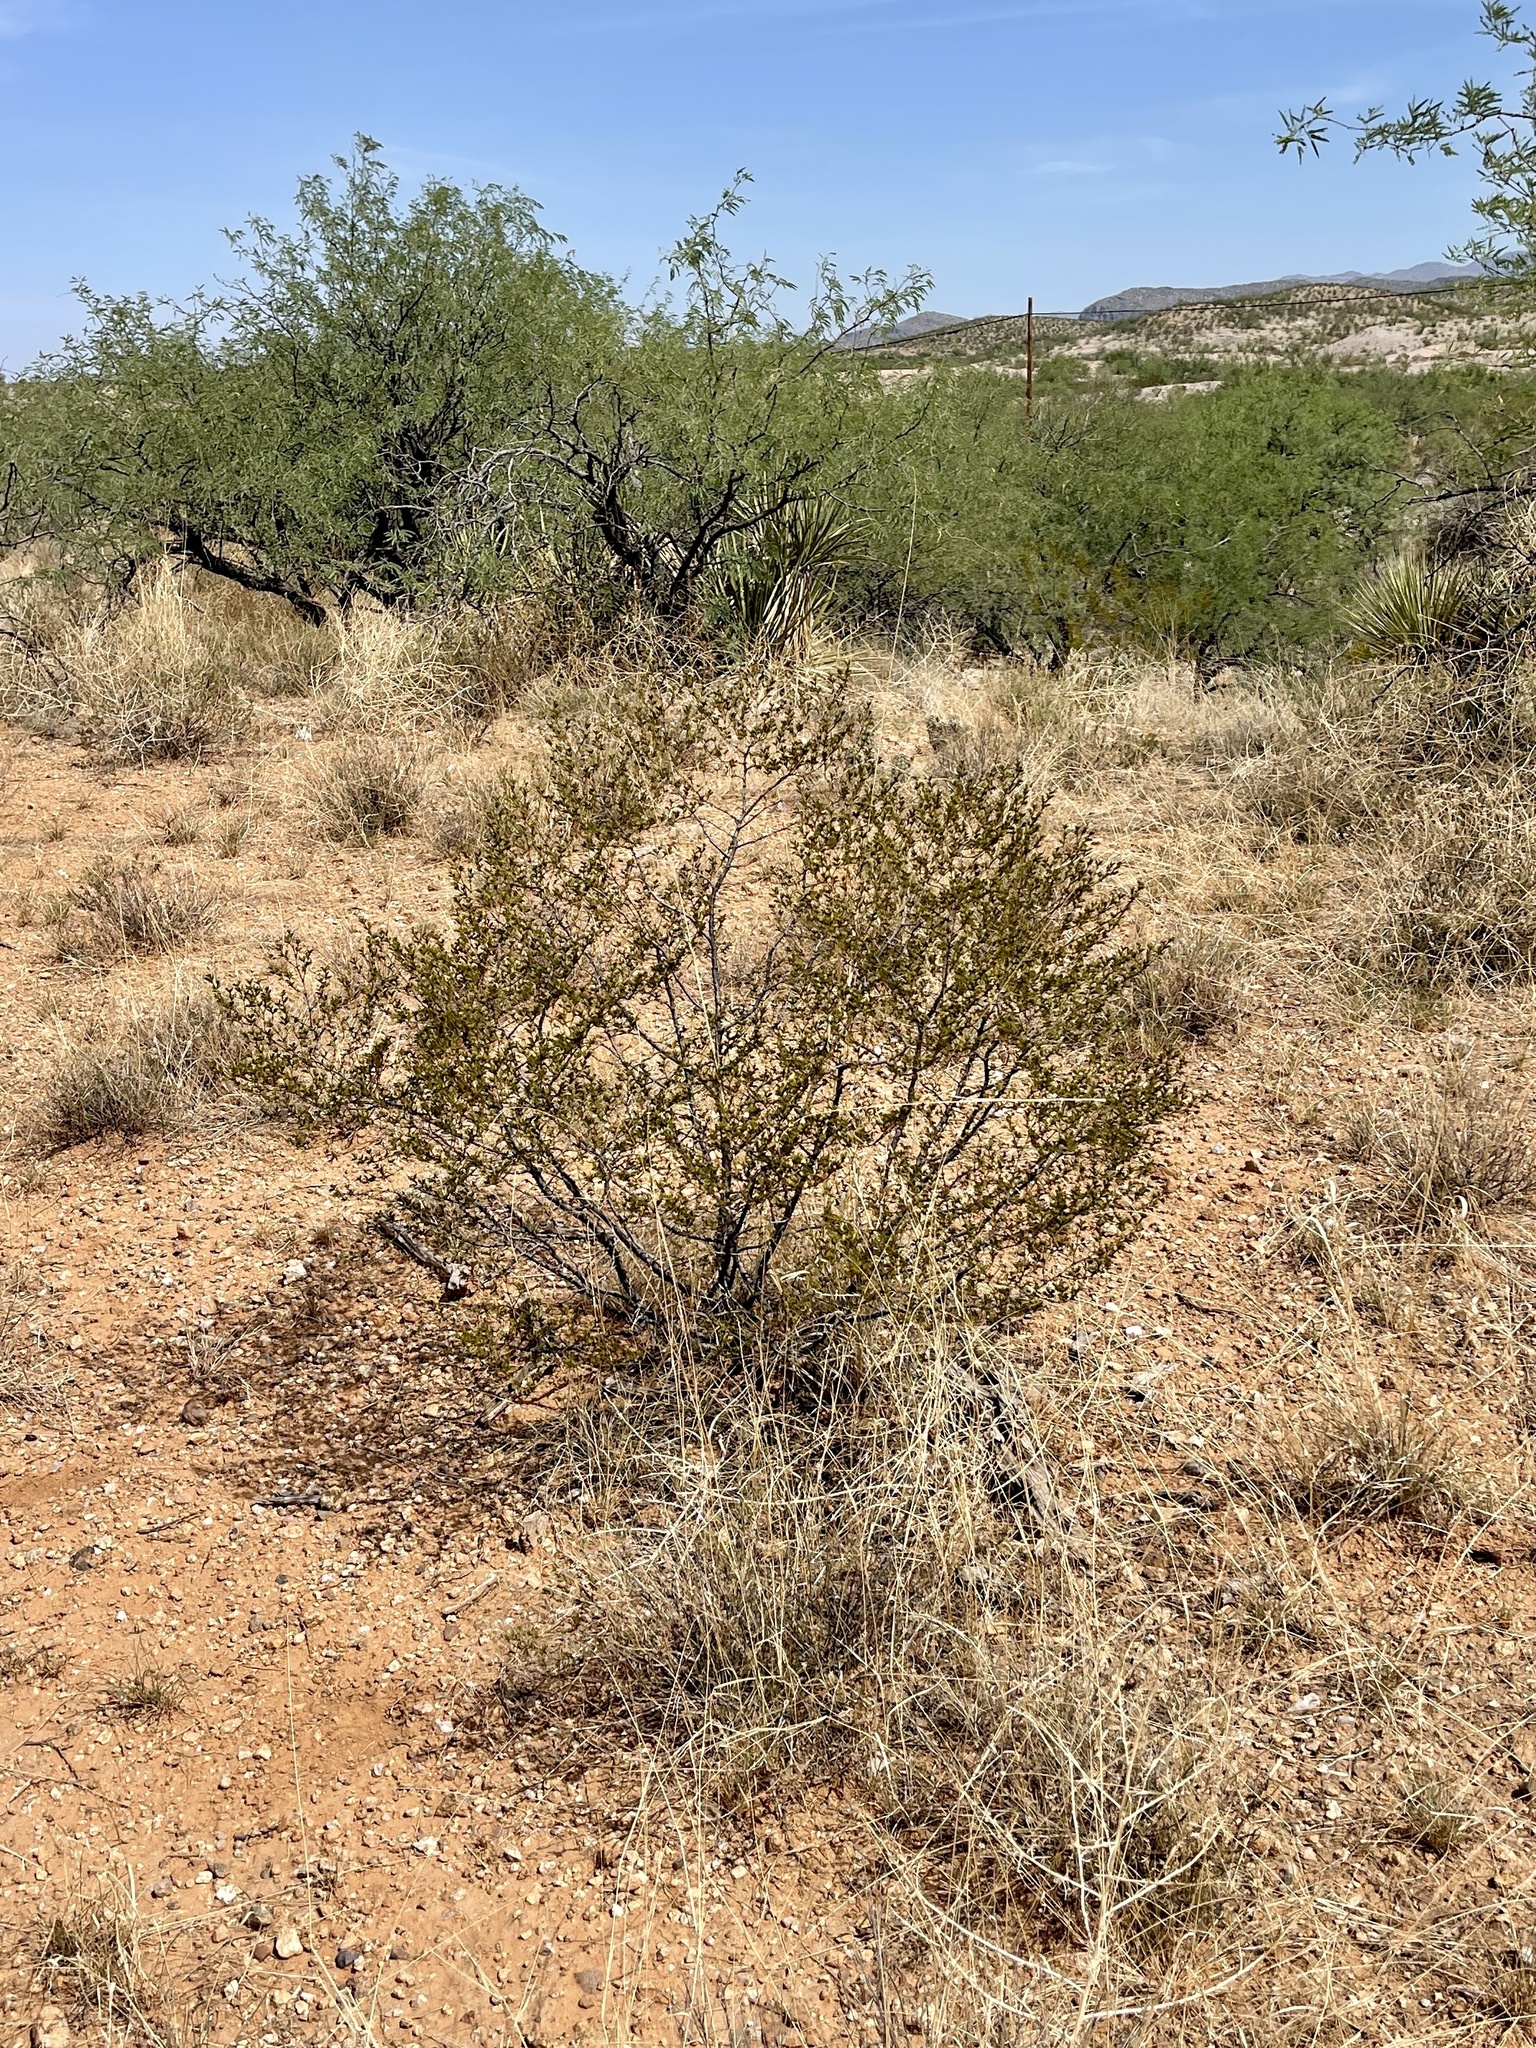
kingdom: Plantae
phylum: Tracheophyta
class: Magnoliopsida
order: Zygophyllales
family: Zygophyllaceae
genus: Larrea
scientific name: Larrea tridentata
